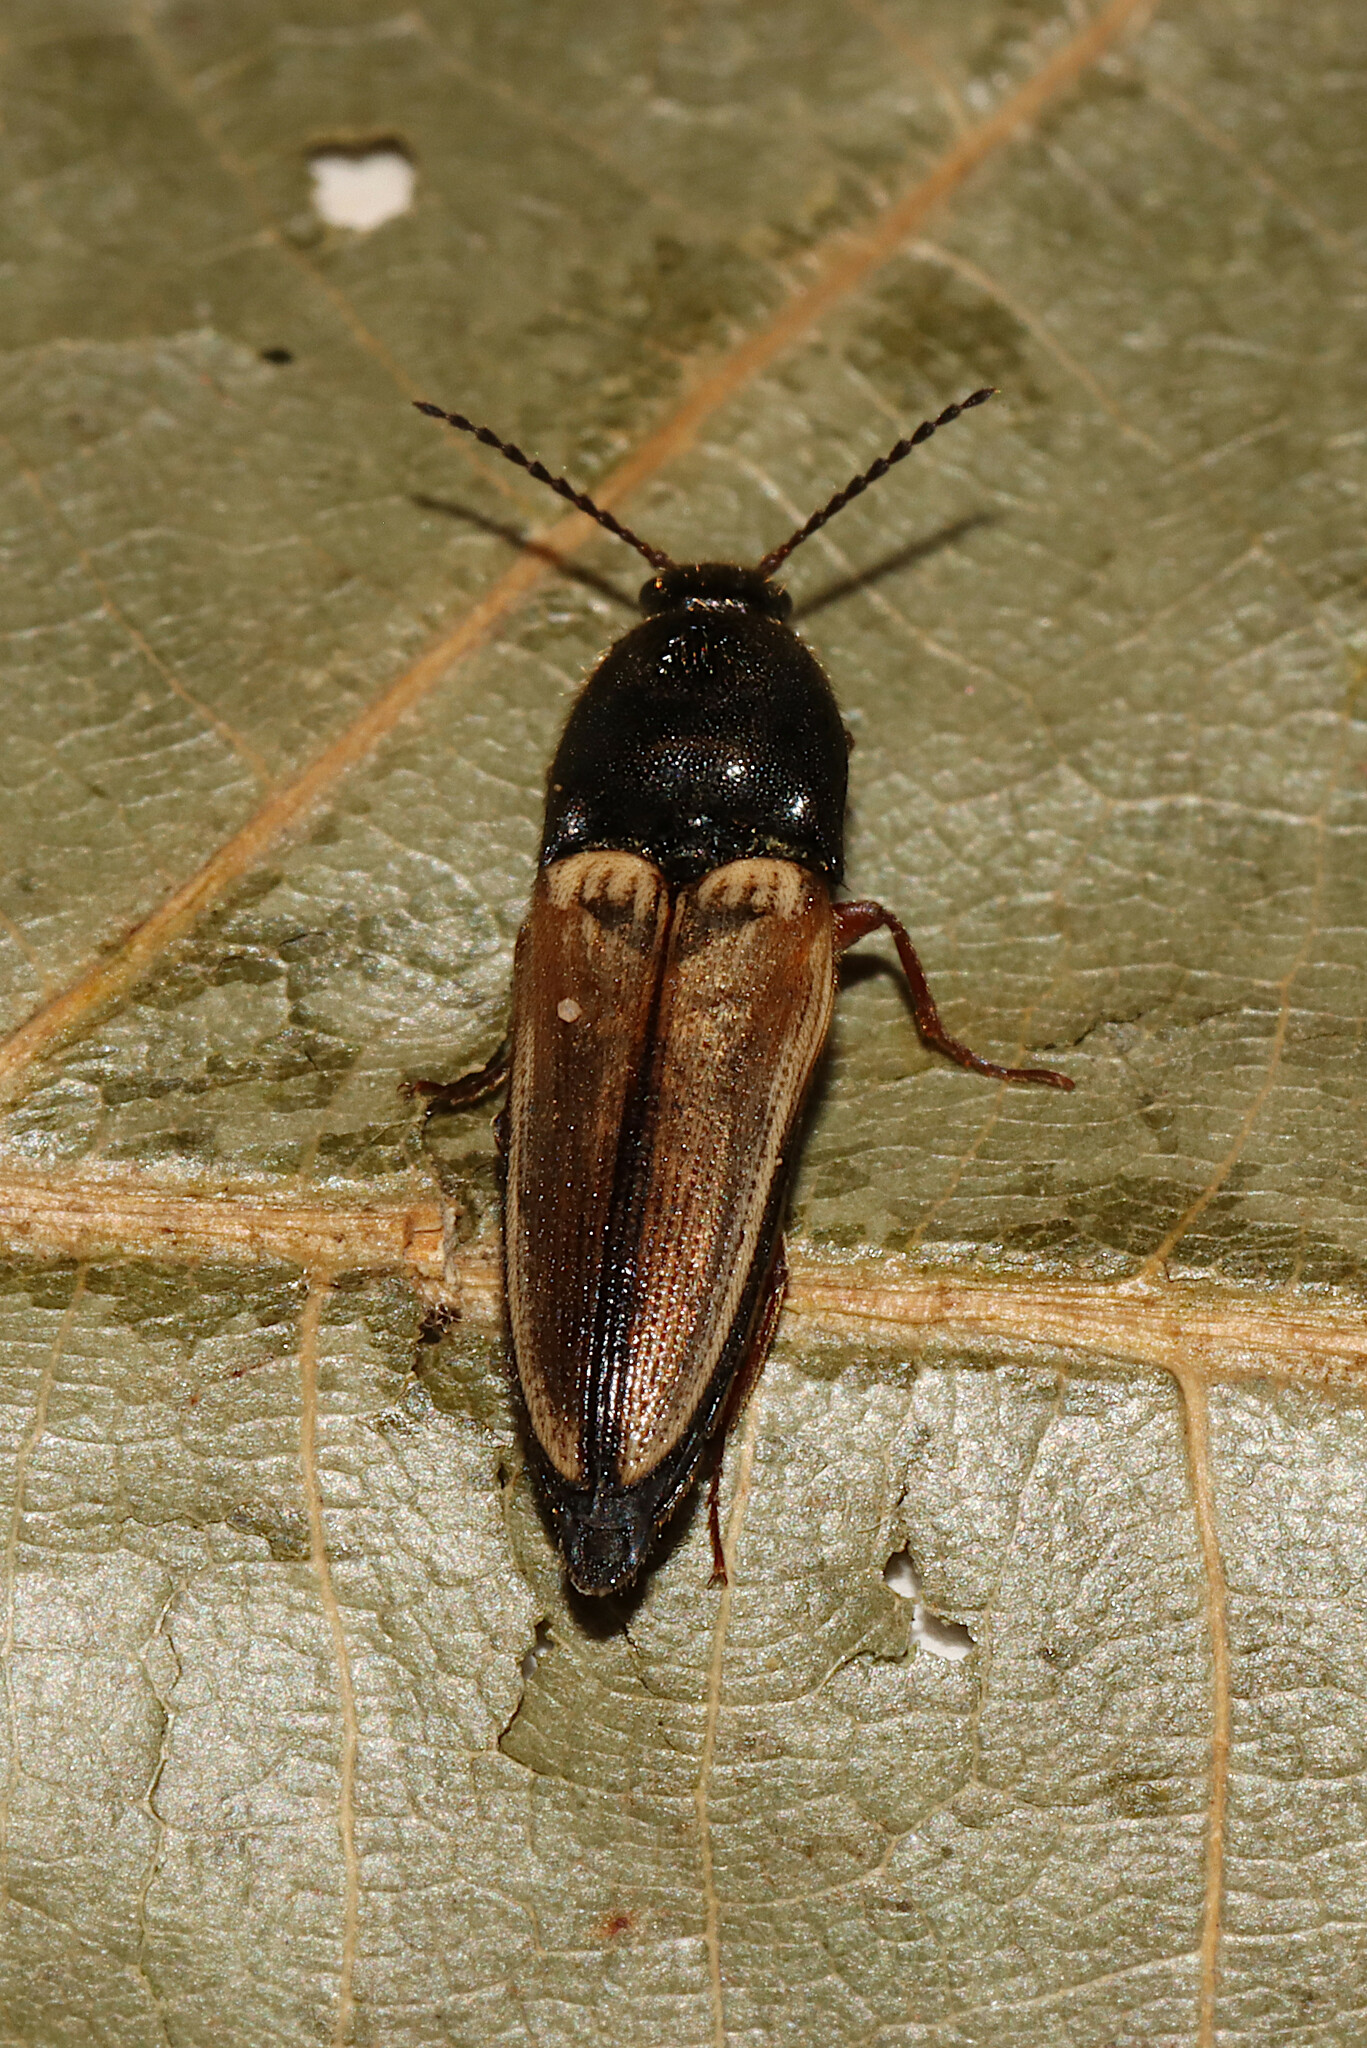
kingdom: Animalia
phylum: Arthropoda
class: Insecta
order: Coleoptera
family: Elateridae
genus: Ampedus
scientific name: Ampedus nigricollis
